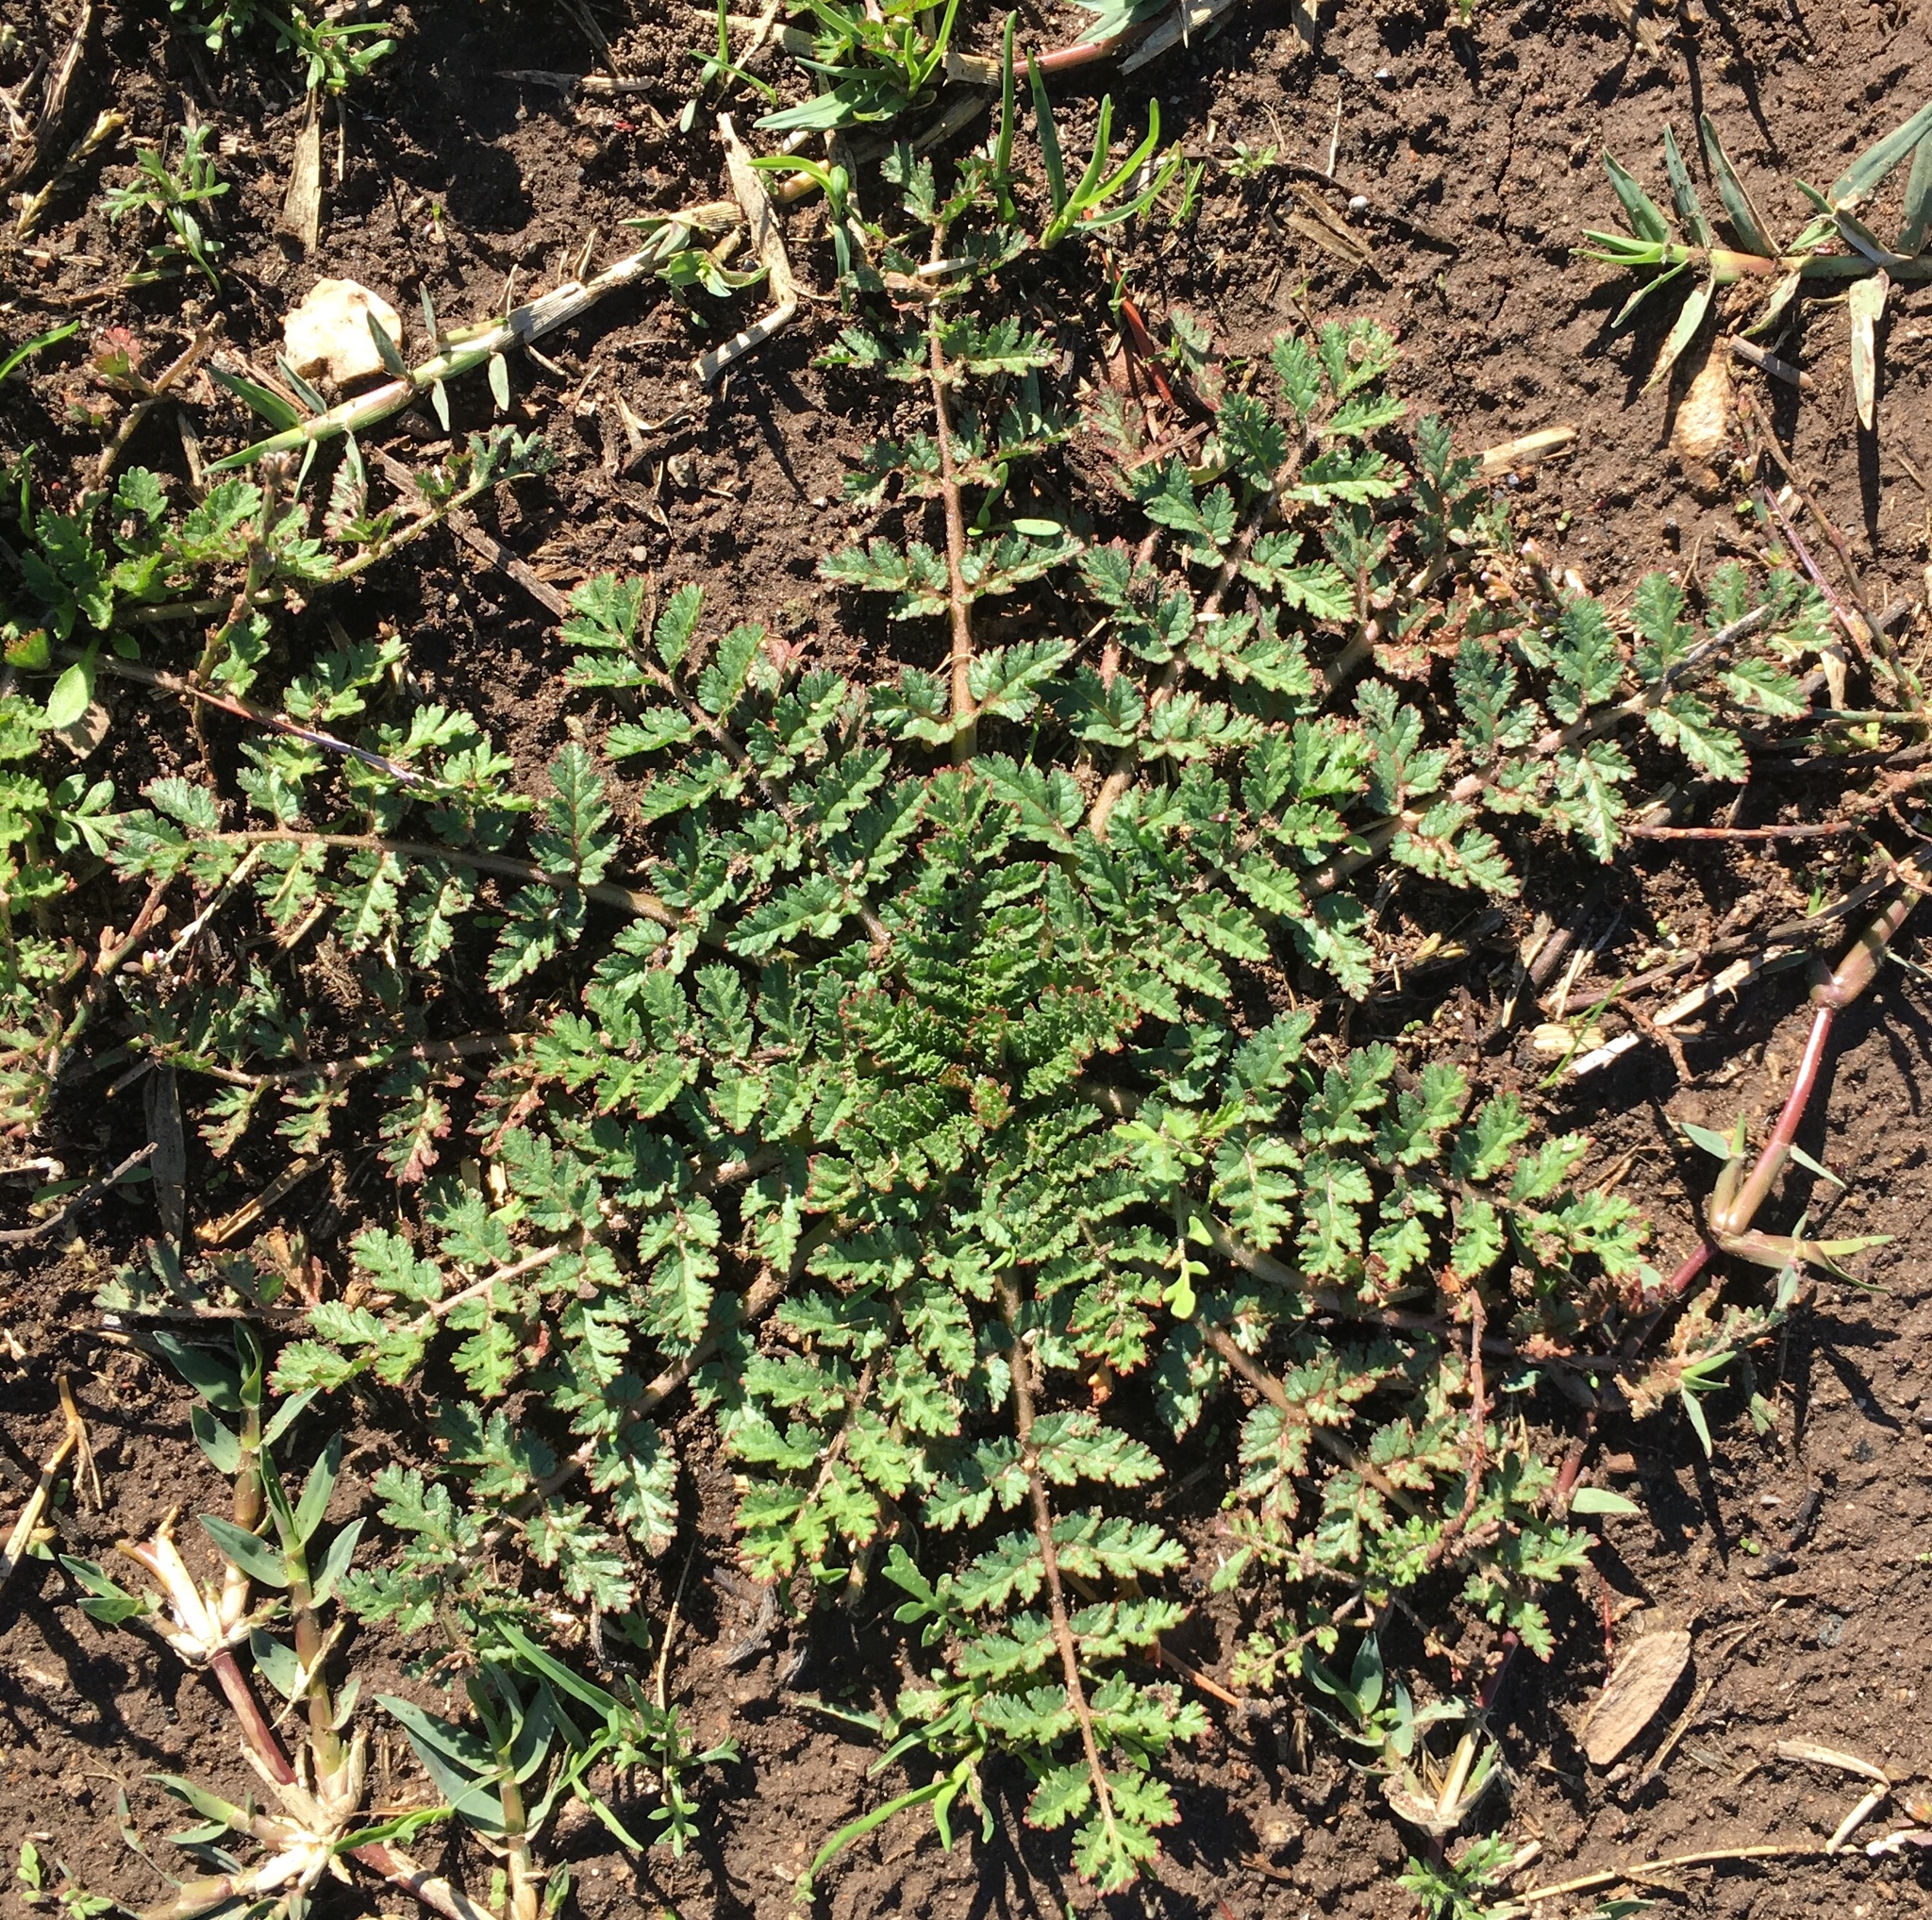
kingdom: Plantae
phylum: Tracheophyta
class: Magnoliopsida
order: Geraniales
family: Geraniaceae
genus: Erodium
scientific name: Erodium cicutarium
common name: Common stork's-bill
